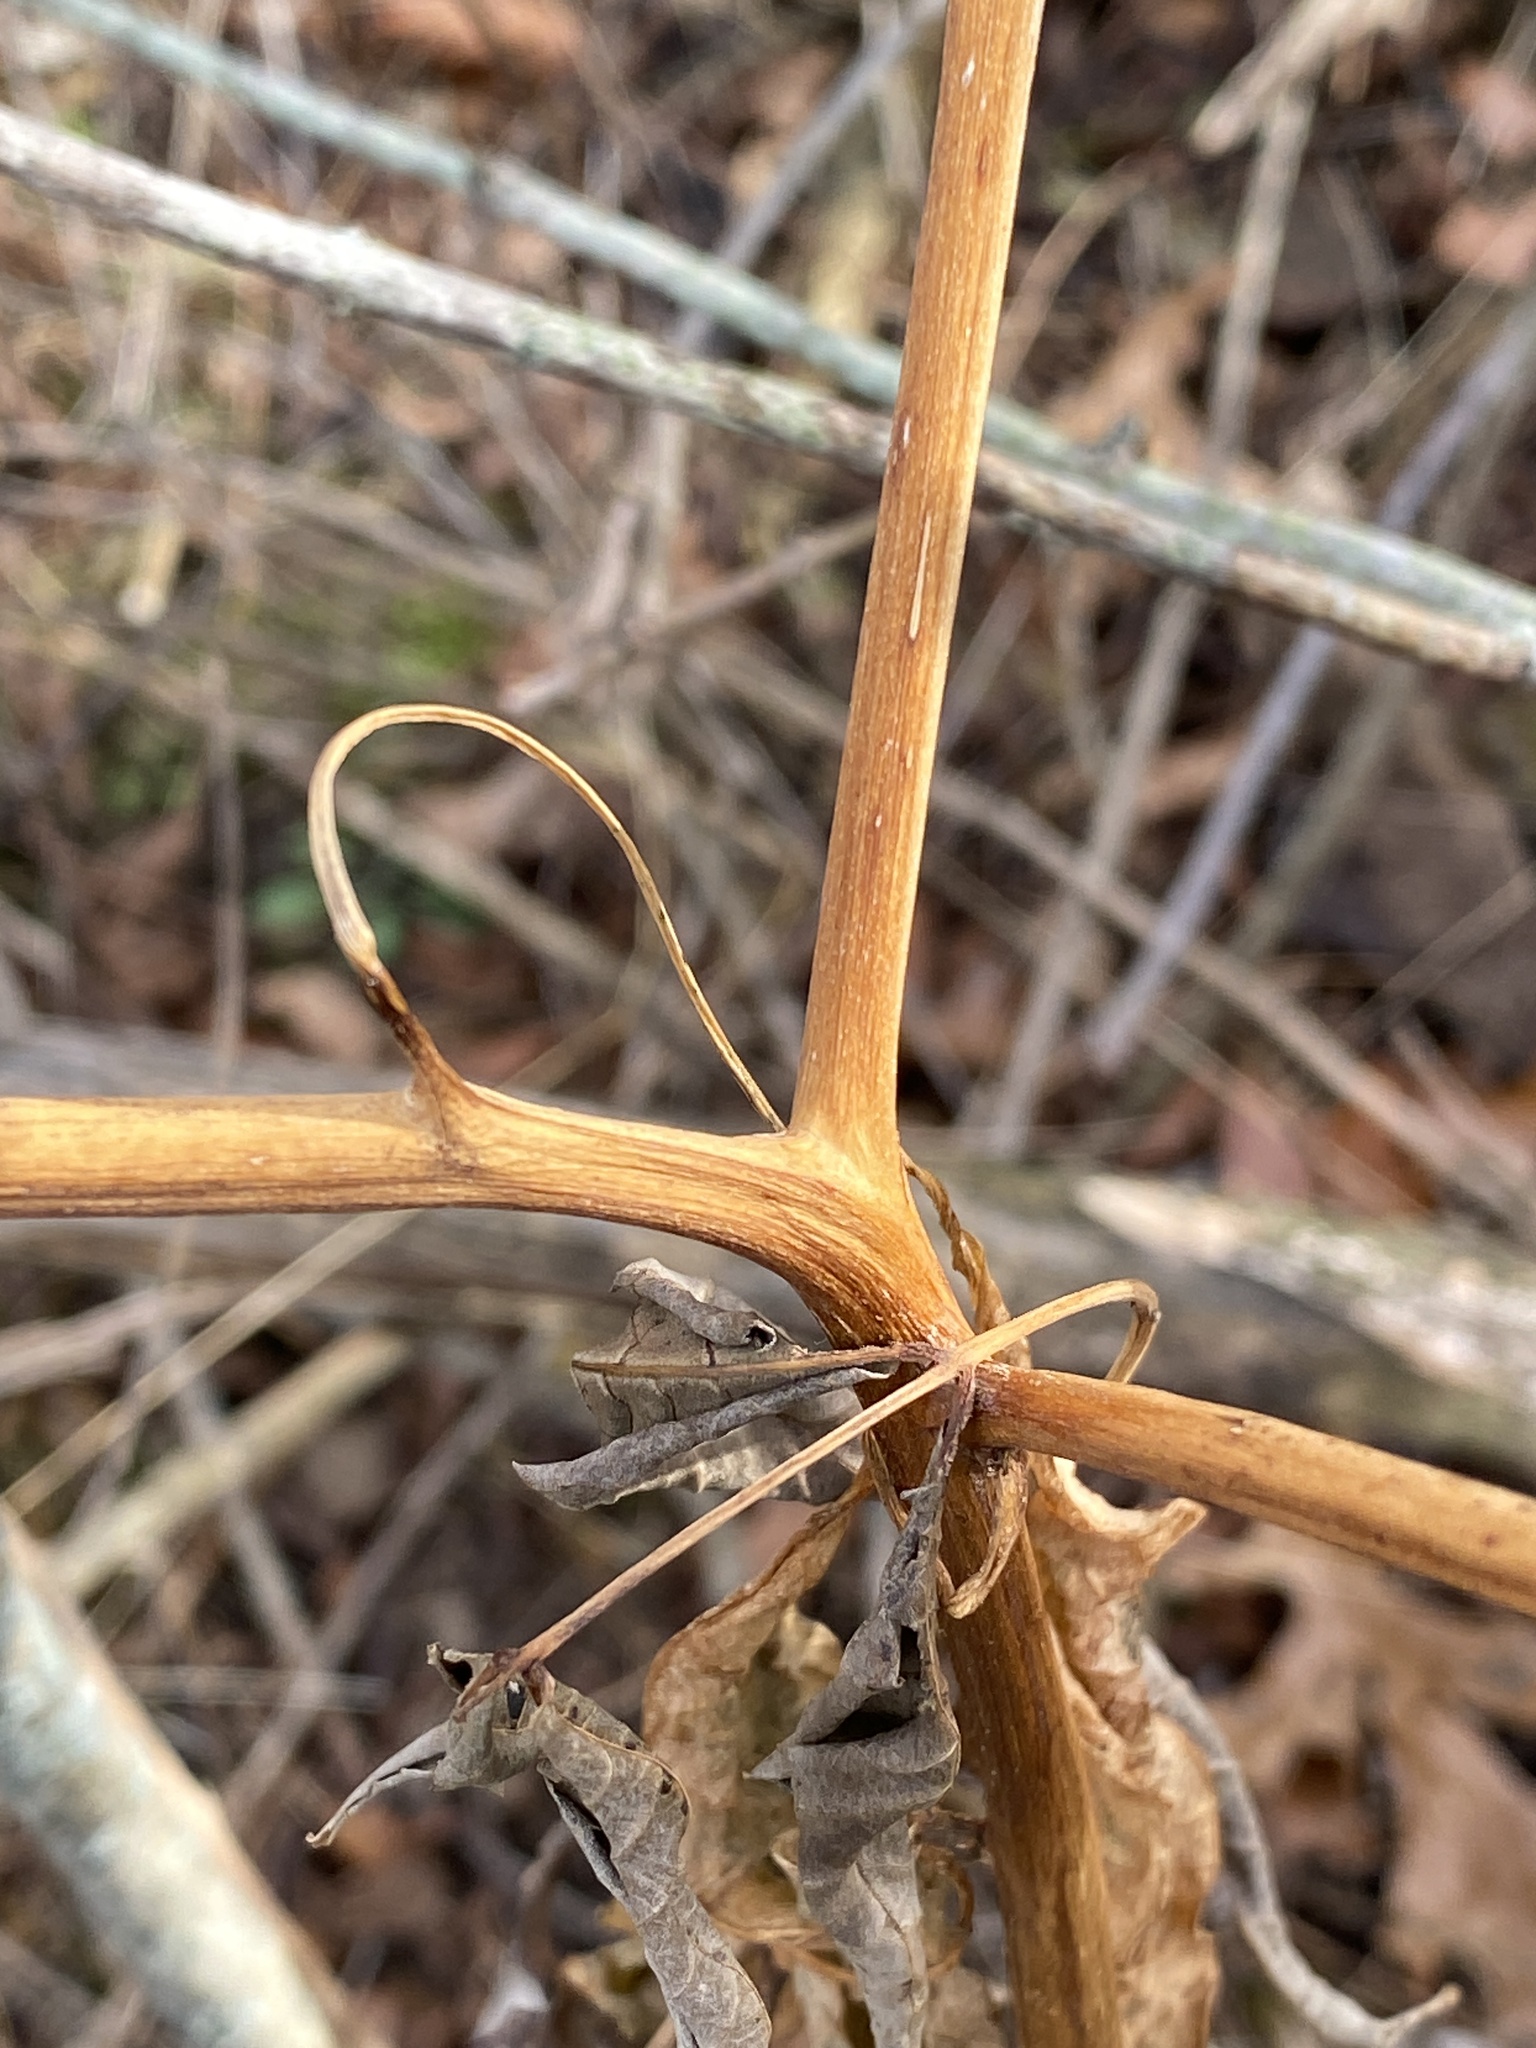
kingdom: Plantae
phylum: Tracheophyta
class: Magnoliopsida
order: Caryophyllales
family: Phytolaccaceae
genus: Phytolacca
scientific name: Phytolacca americana
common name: American pokeweed
